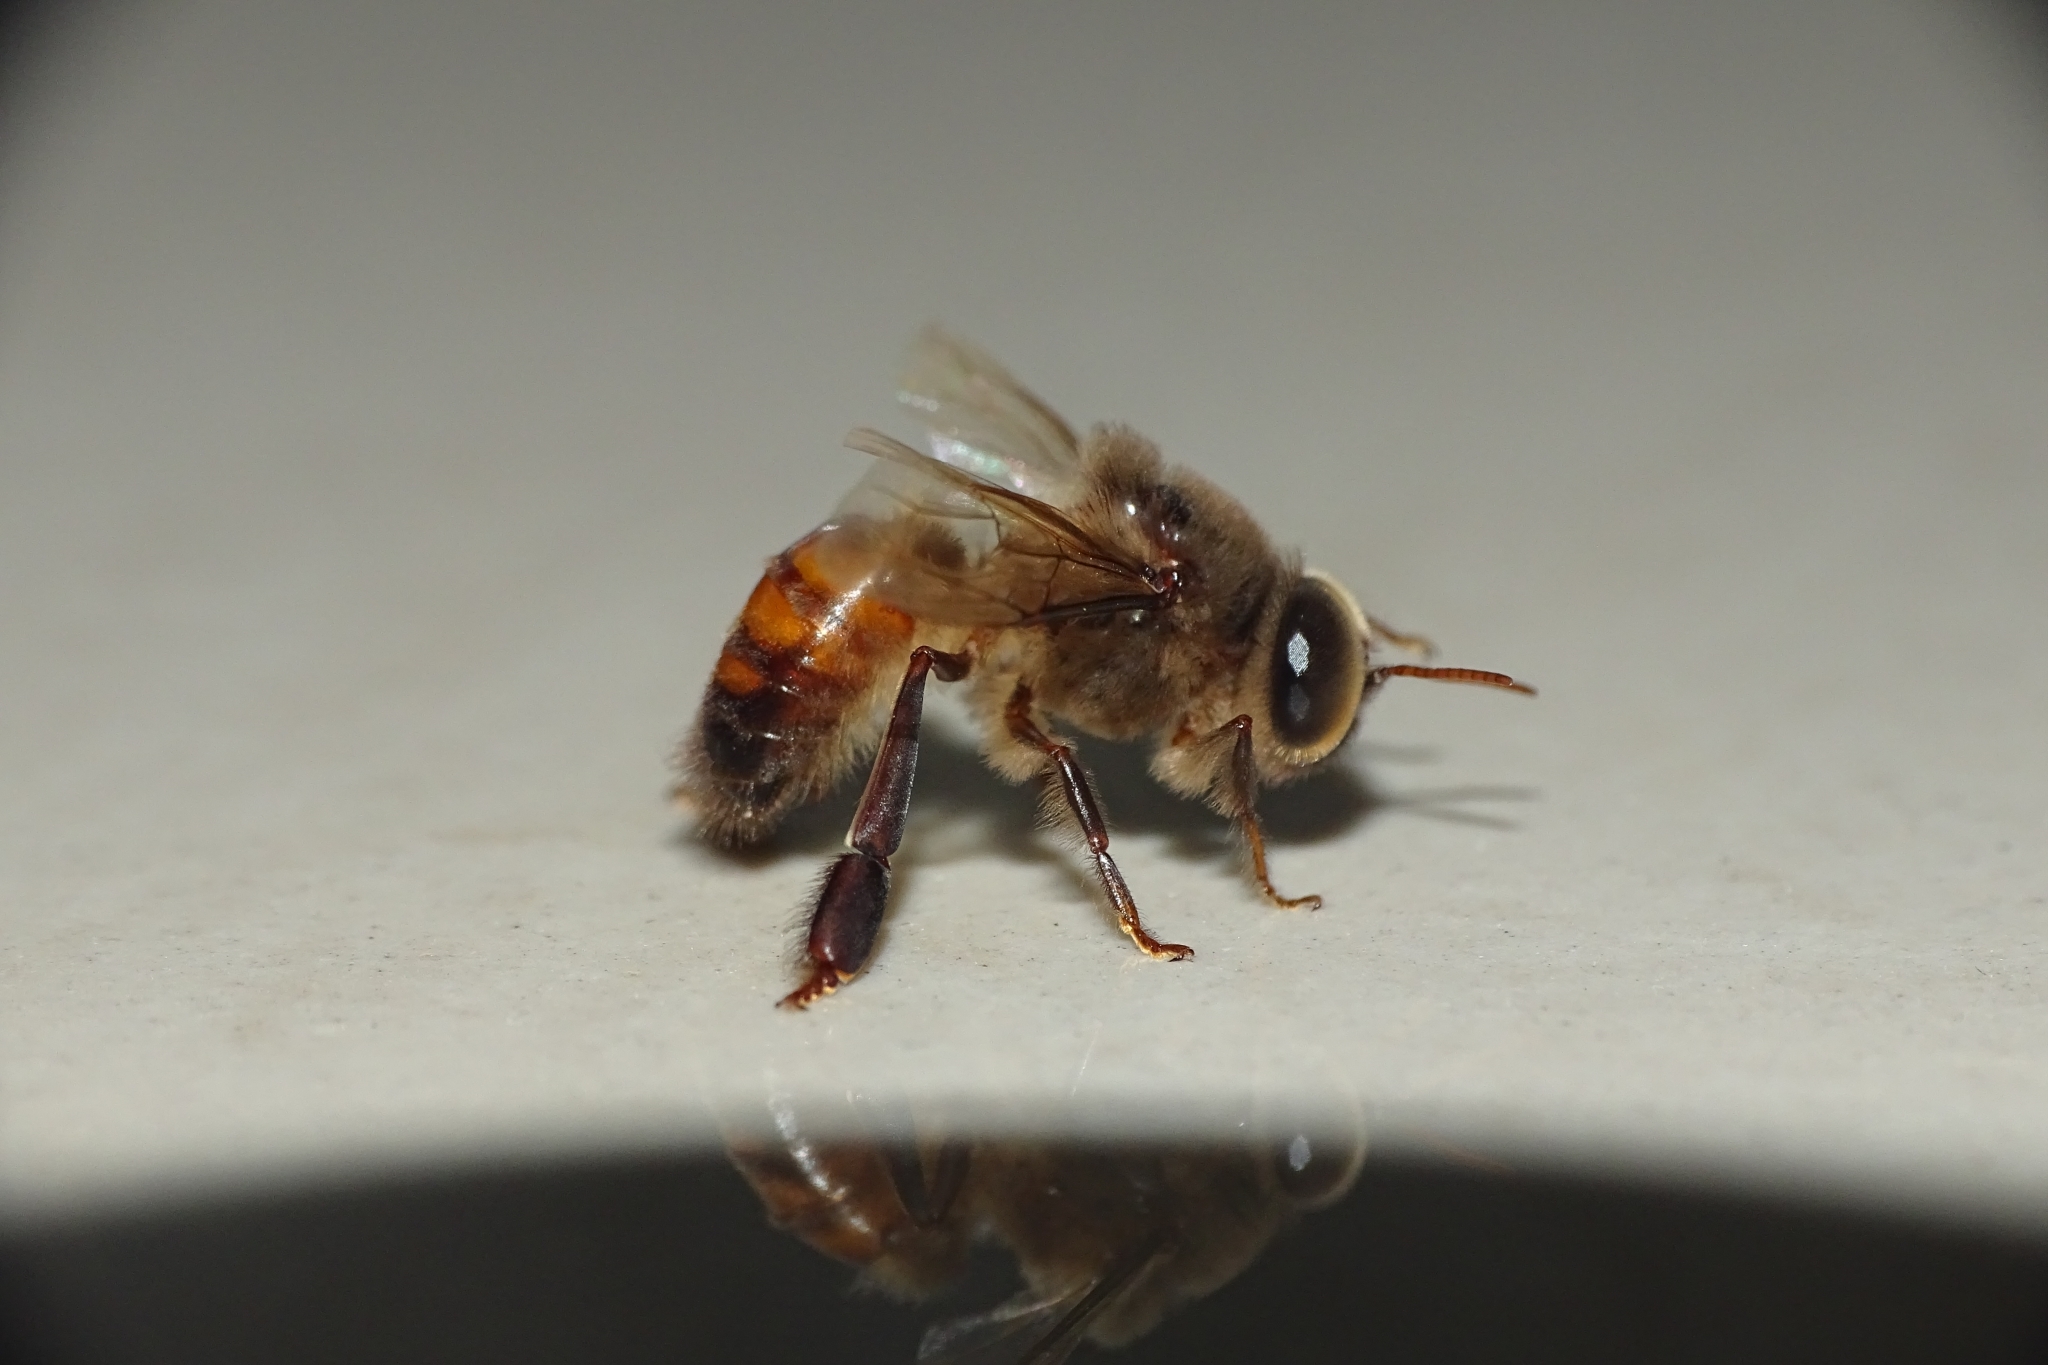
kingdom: Animalia
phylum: Arthropoda
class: Insecta
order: Hymenoptera
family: Apidae
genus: Apis
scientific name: Apis cerana
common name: Honey bee
